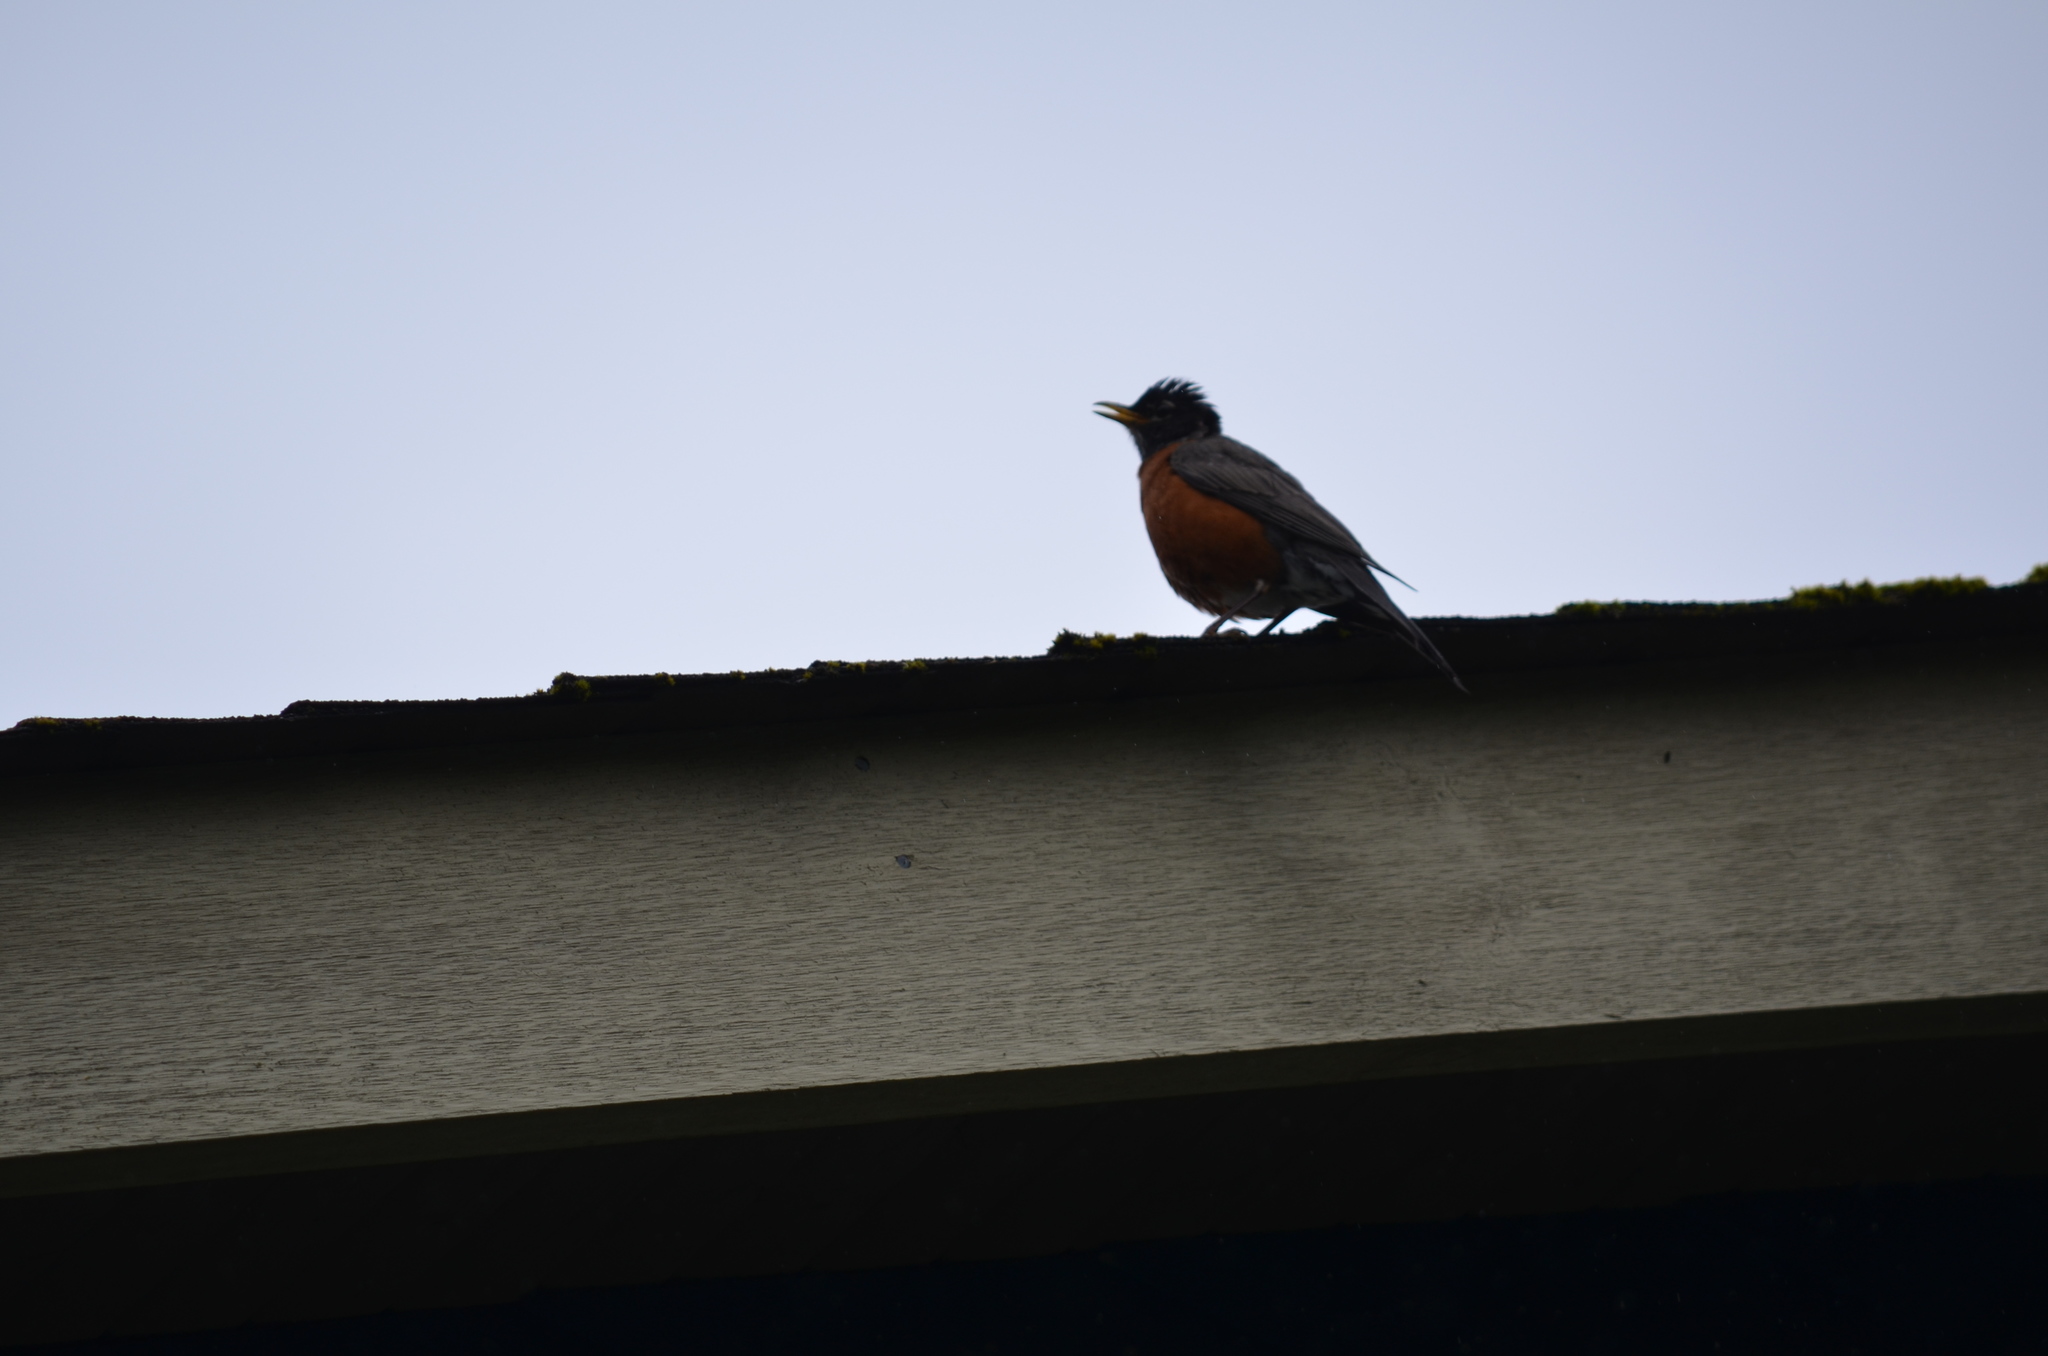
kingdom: Animalia
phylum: Chordata
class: Aves
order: Passeriformes
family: Turdidae
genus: Turdus
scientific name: Turdus migratorius
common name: American robin
